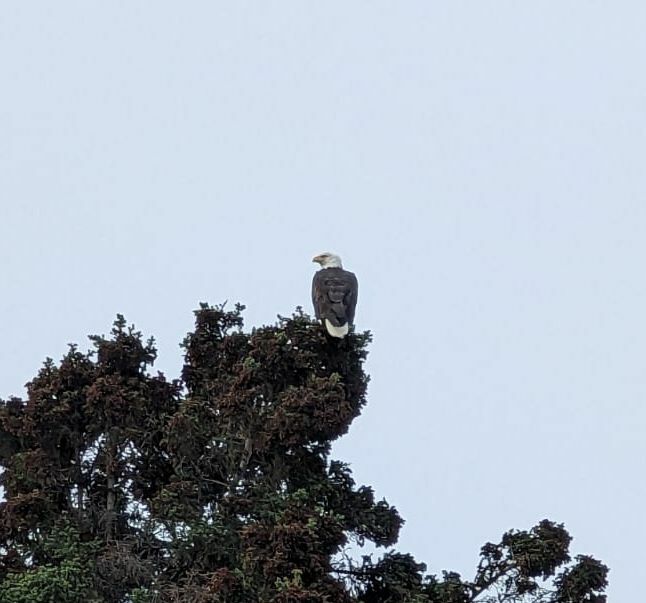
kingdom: Animalia
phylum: Chordata
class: Aves
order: Accipitriformes
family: Accipitridae
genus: Haliaeetus
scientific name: Haliaeetus leucocephalus
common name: Bald eagle
